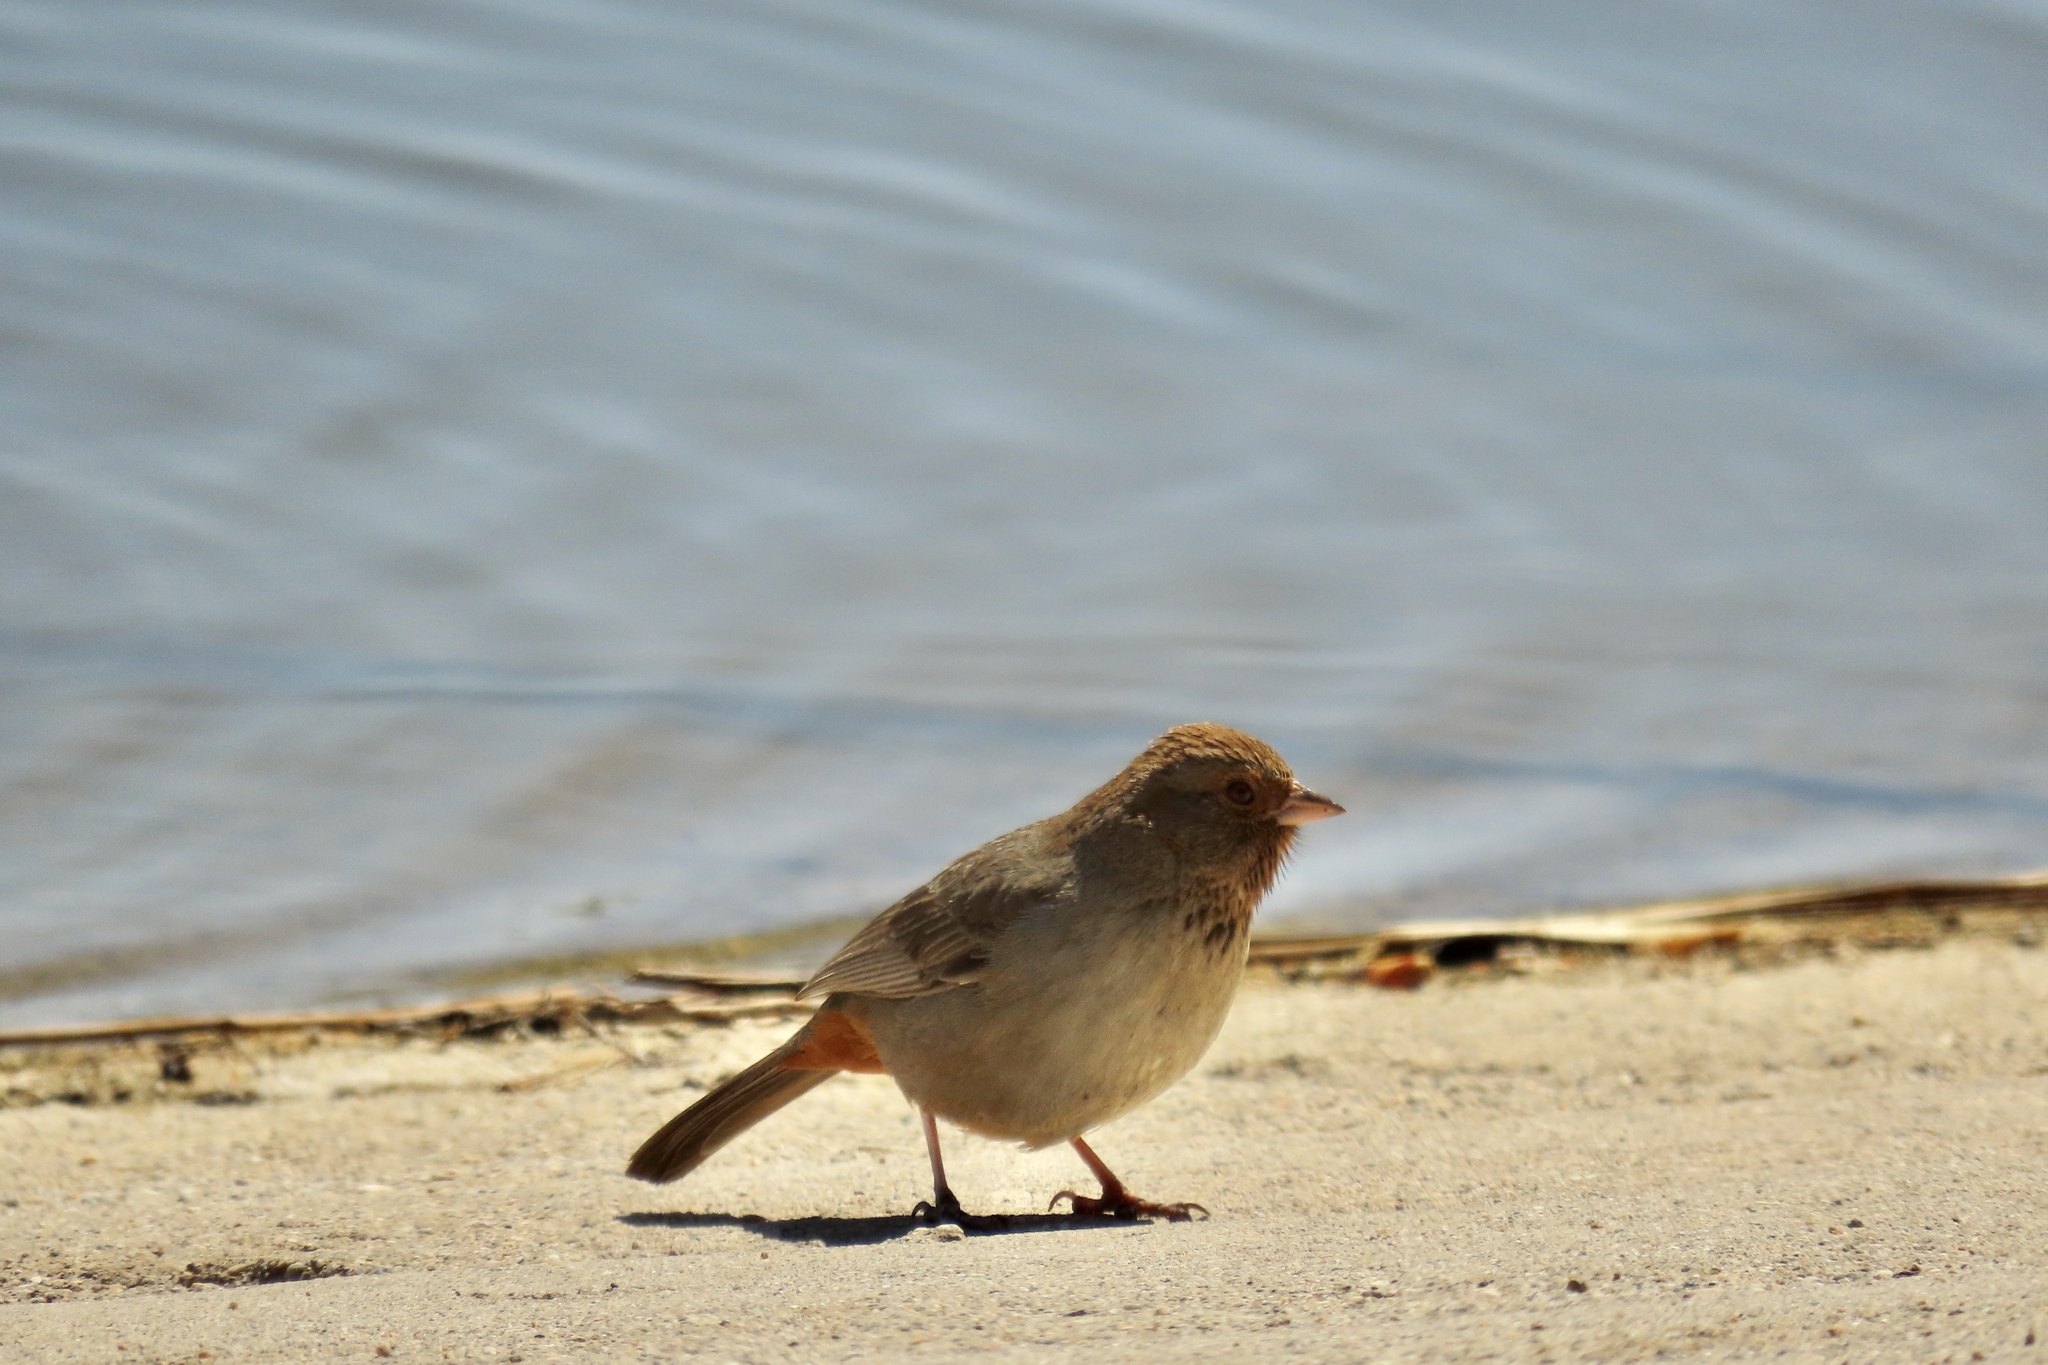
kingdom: Animalia
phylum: Chordata
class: Aves
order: Passeriformes
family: Passerellidae
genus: Melozone
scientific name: Melozone crissalis
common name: California towhee
